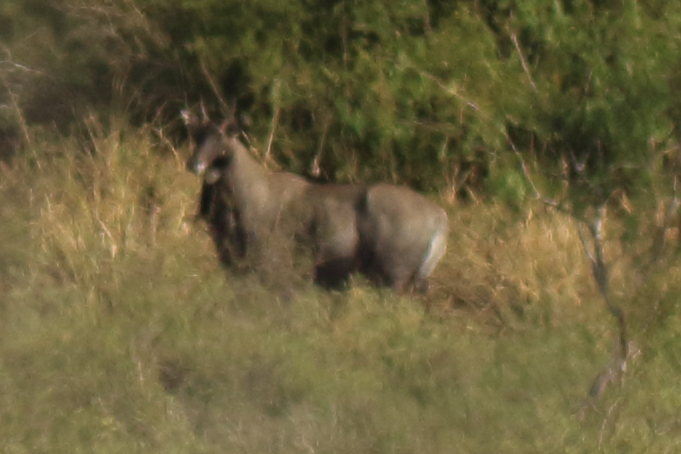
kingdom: Animalia
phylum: Chordata
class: Mammalia
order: Artiodactyla
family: Bovidae
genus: Boselaphus
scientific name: Boselaphus tragocamelus
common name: Nilgai
